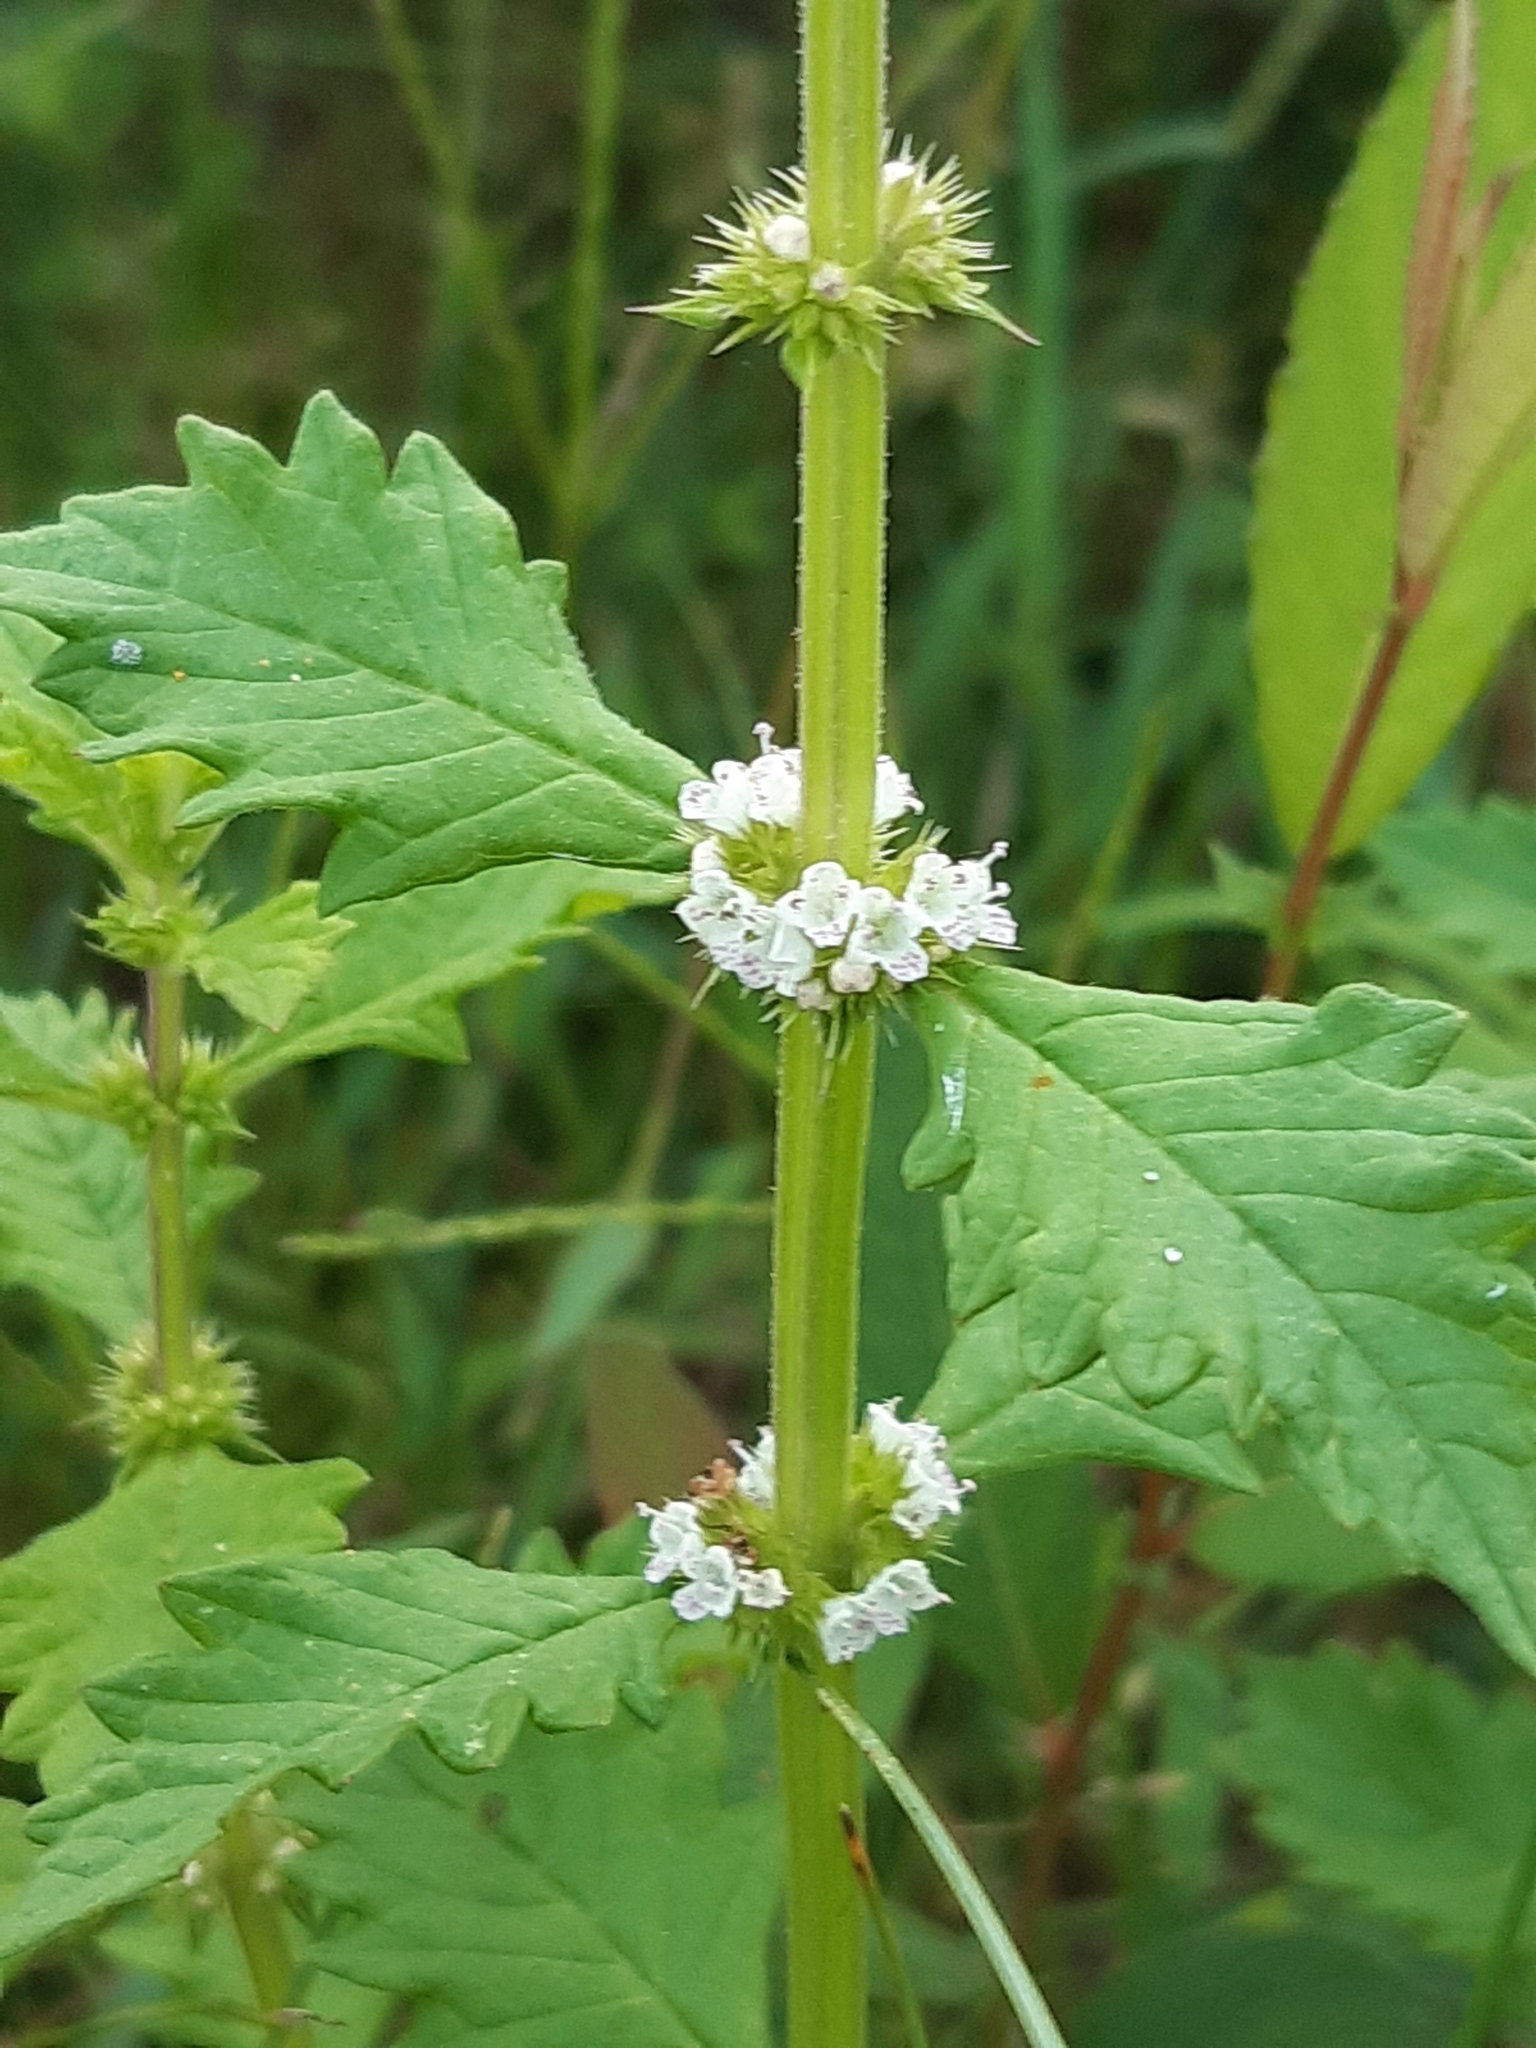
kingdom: Plantae
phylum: Tracheophyta
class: Magnoliopsida
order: Lamiales
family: Lamiaceae
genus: Lycopus
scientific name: Lycopus europaeus
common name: European bugleweed
